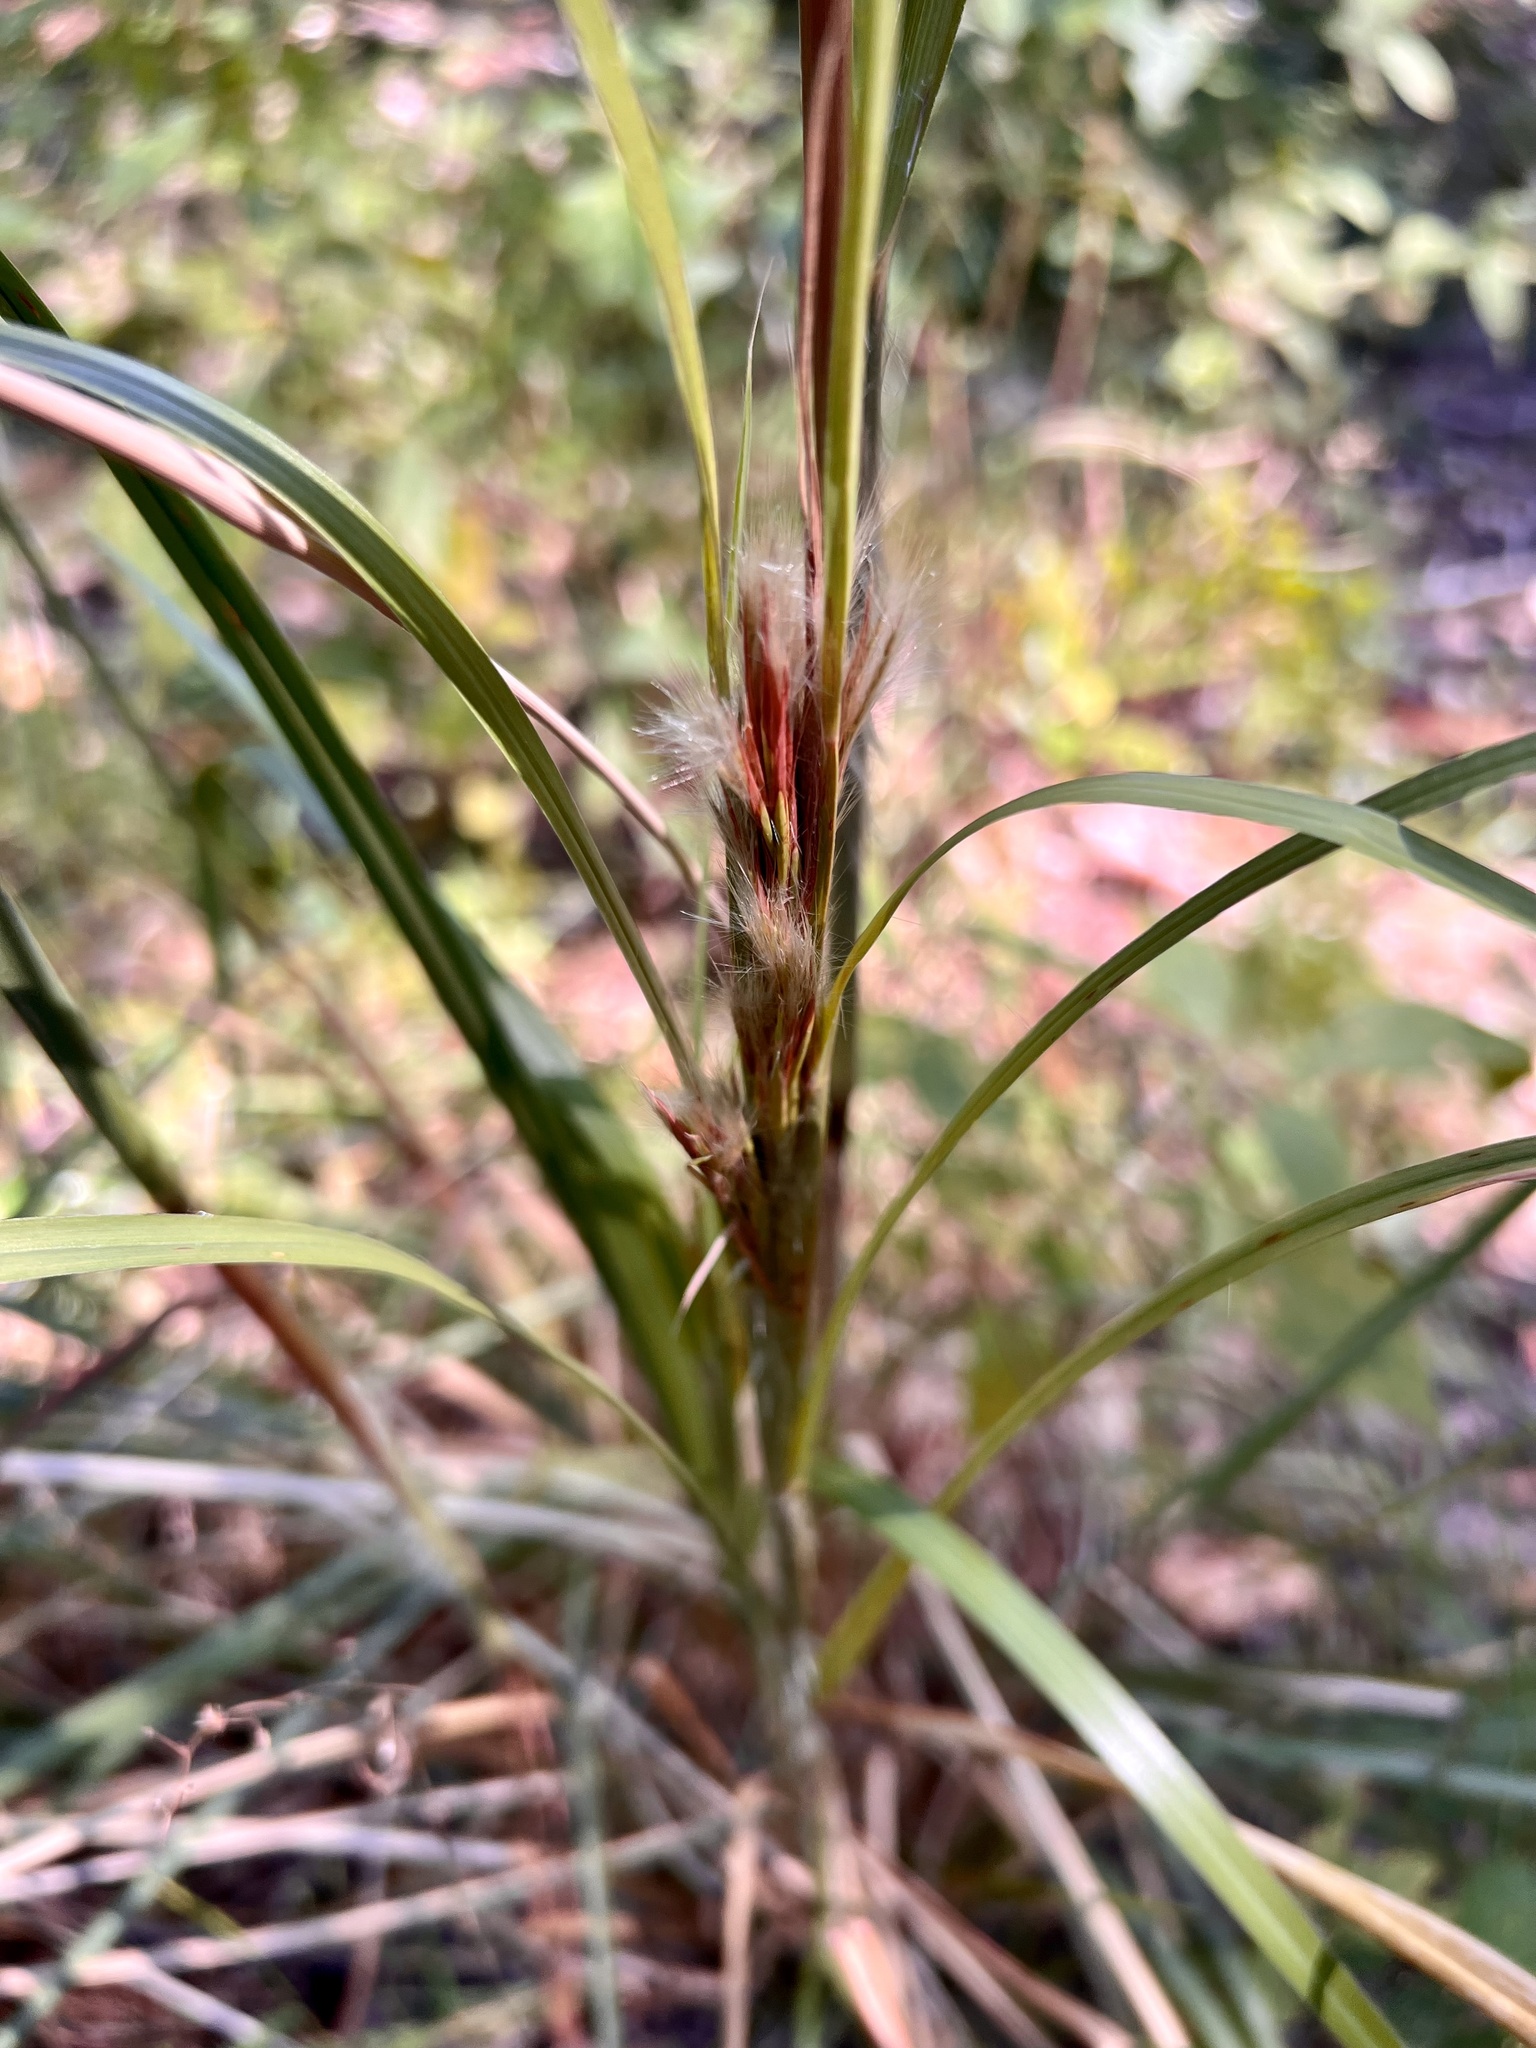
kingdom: Plantae
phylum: Tracheophyta
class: Liliopsida
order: Poales
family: Poaceae
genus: Andropogon
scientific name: Andropogon tenuispatheus
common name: Bushy bluestem
